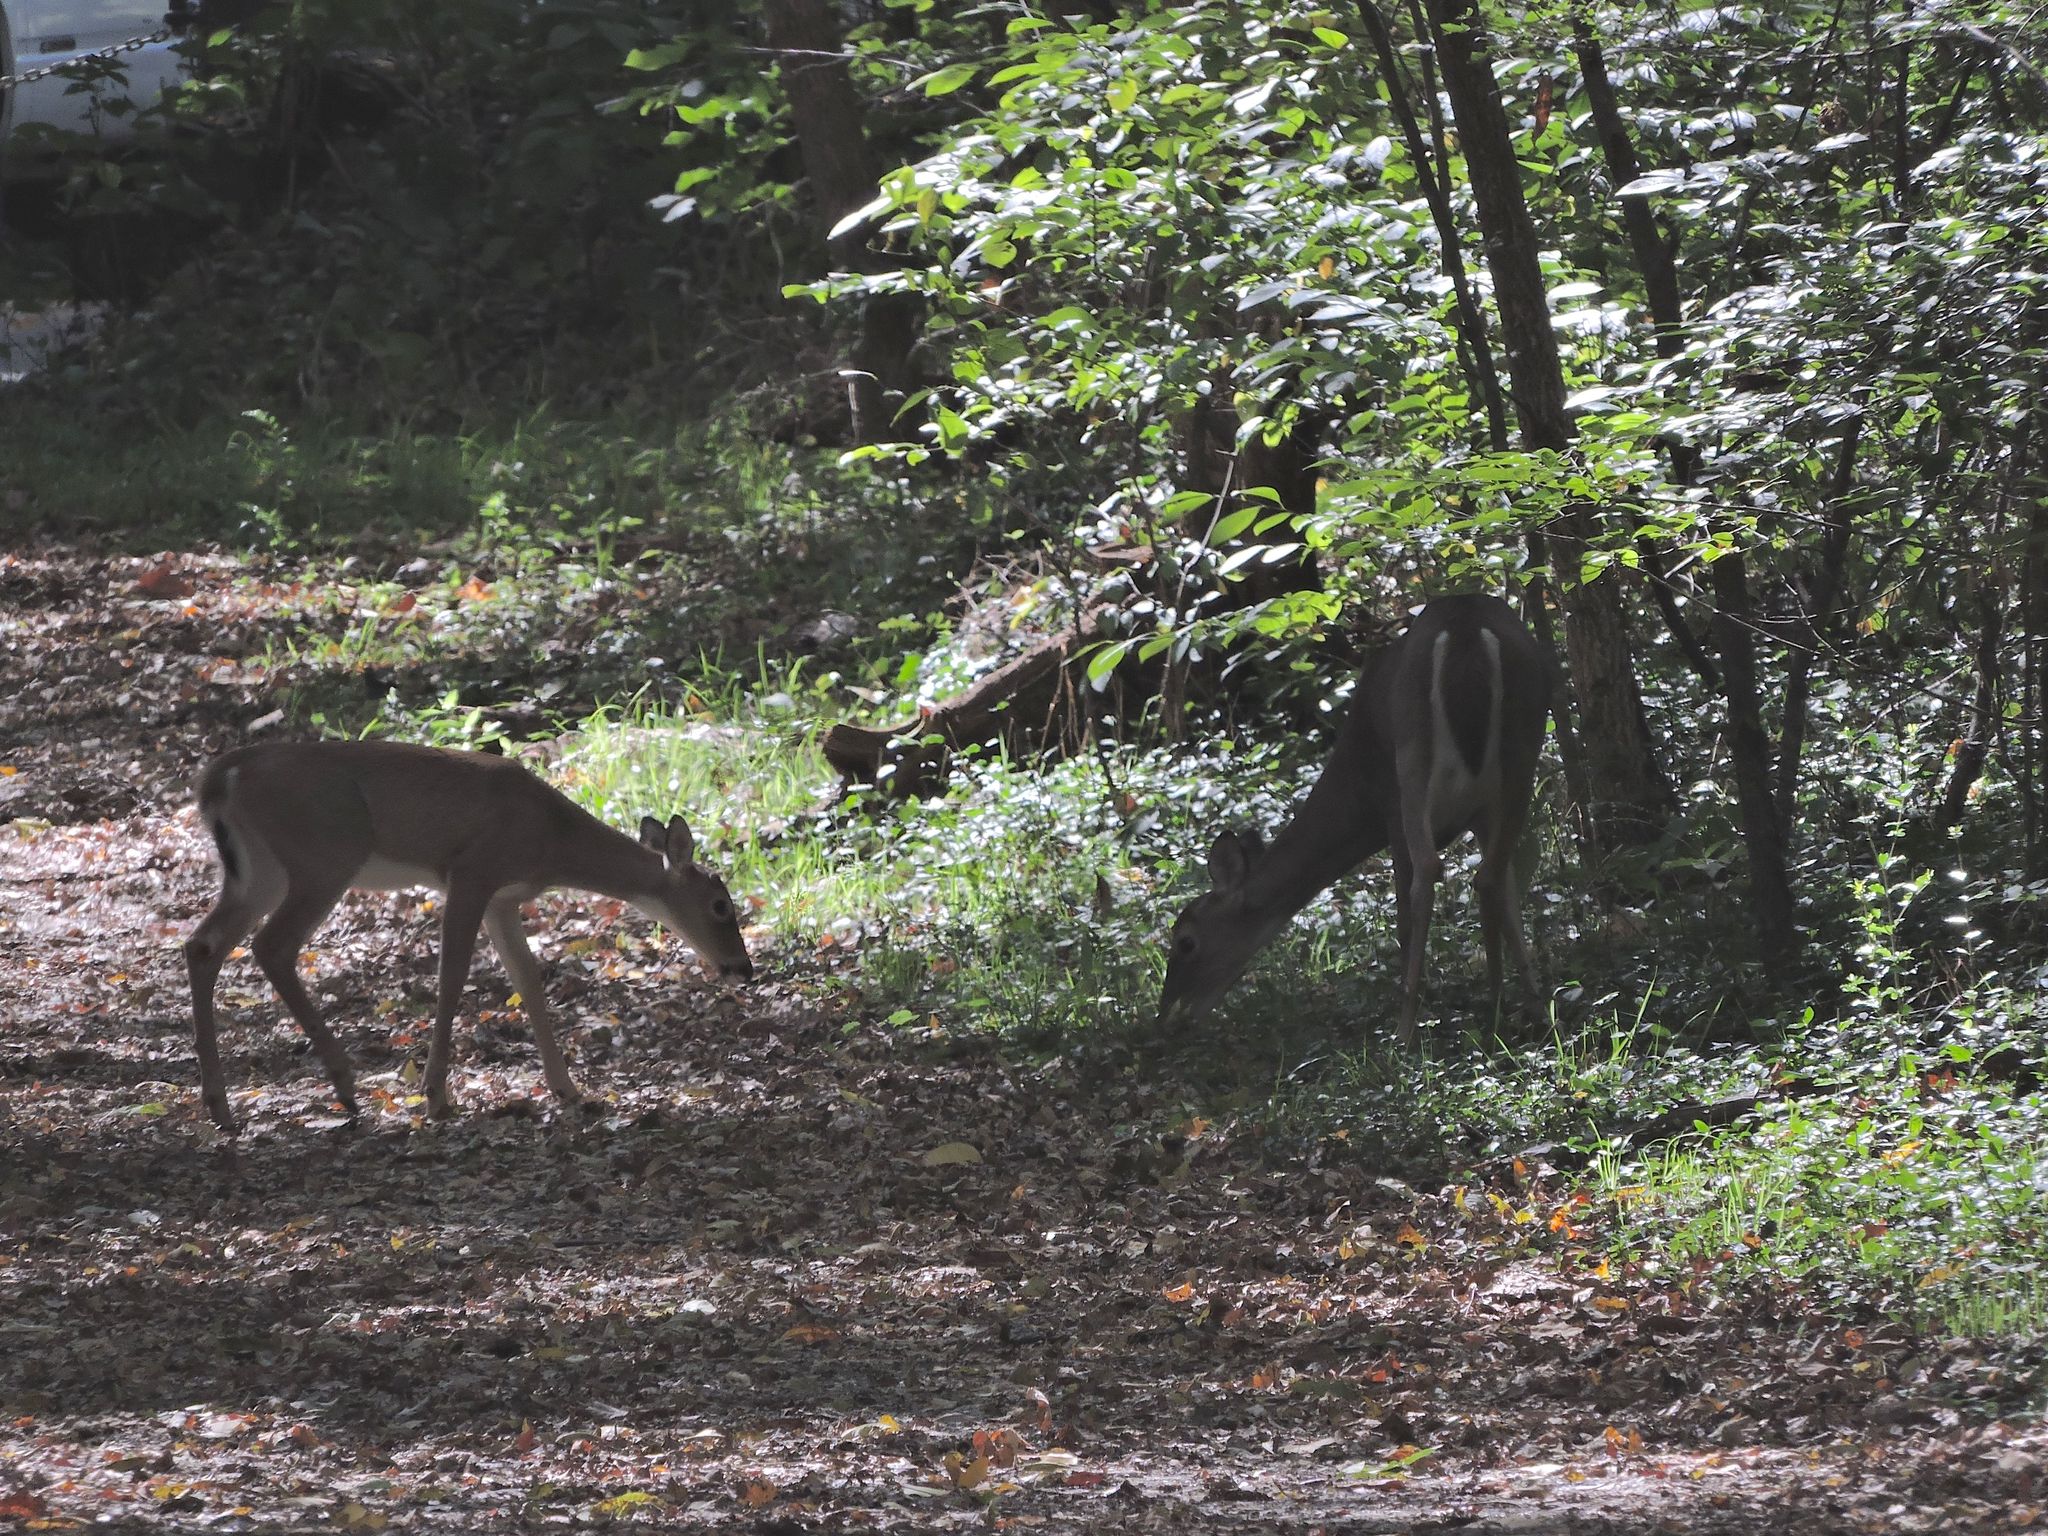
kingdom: Animalia
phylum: Chordata
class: Mammalia
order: Artiodactyla
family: Cervidae
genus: Odocoileus
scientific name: Odocoileus virginianus
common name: White-tailed deer
